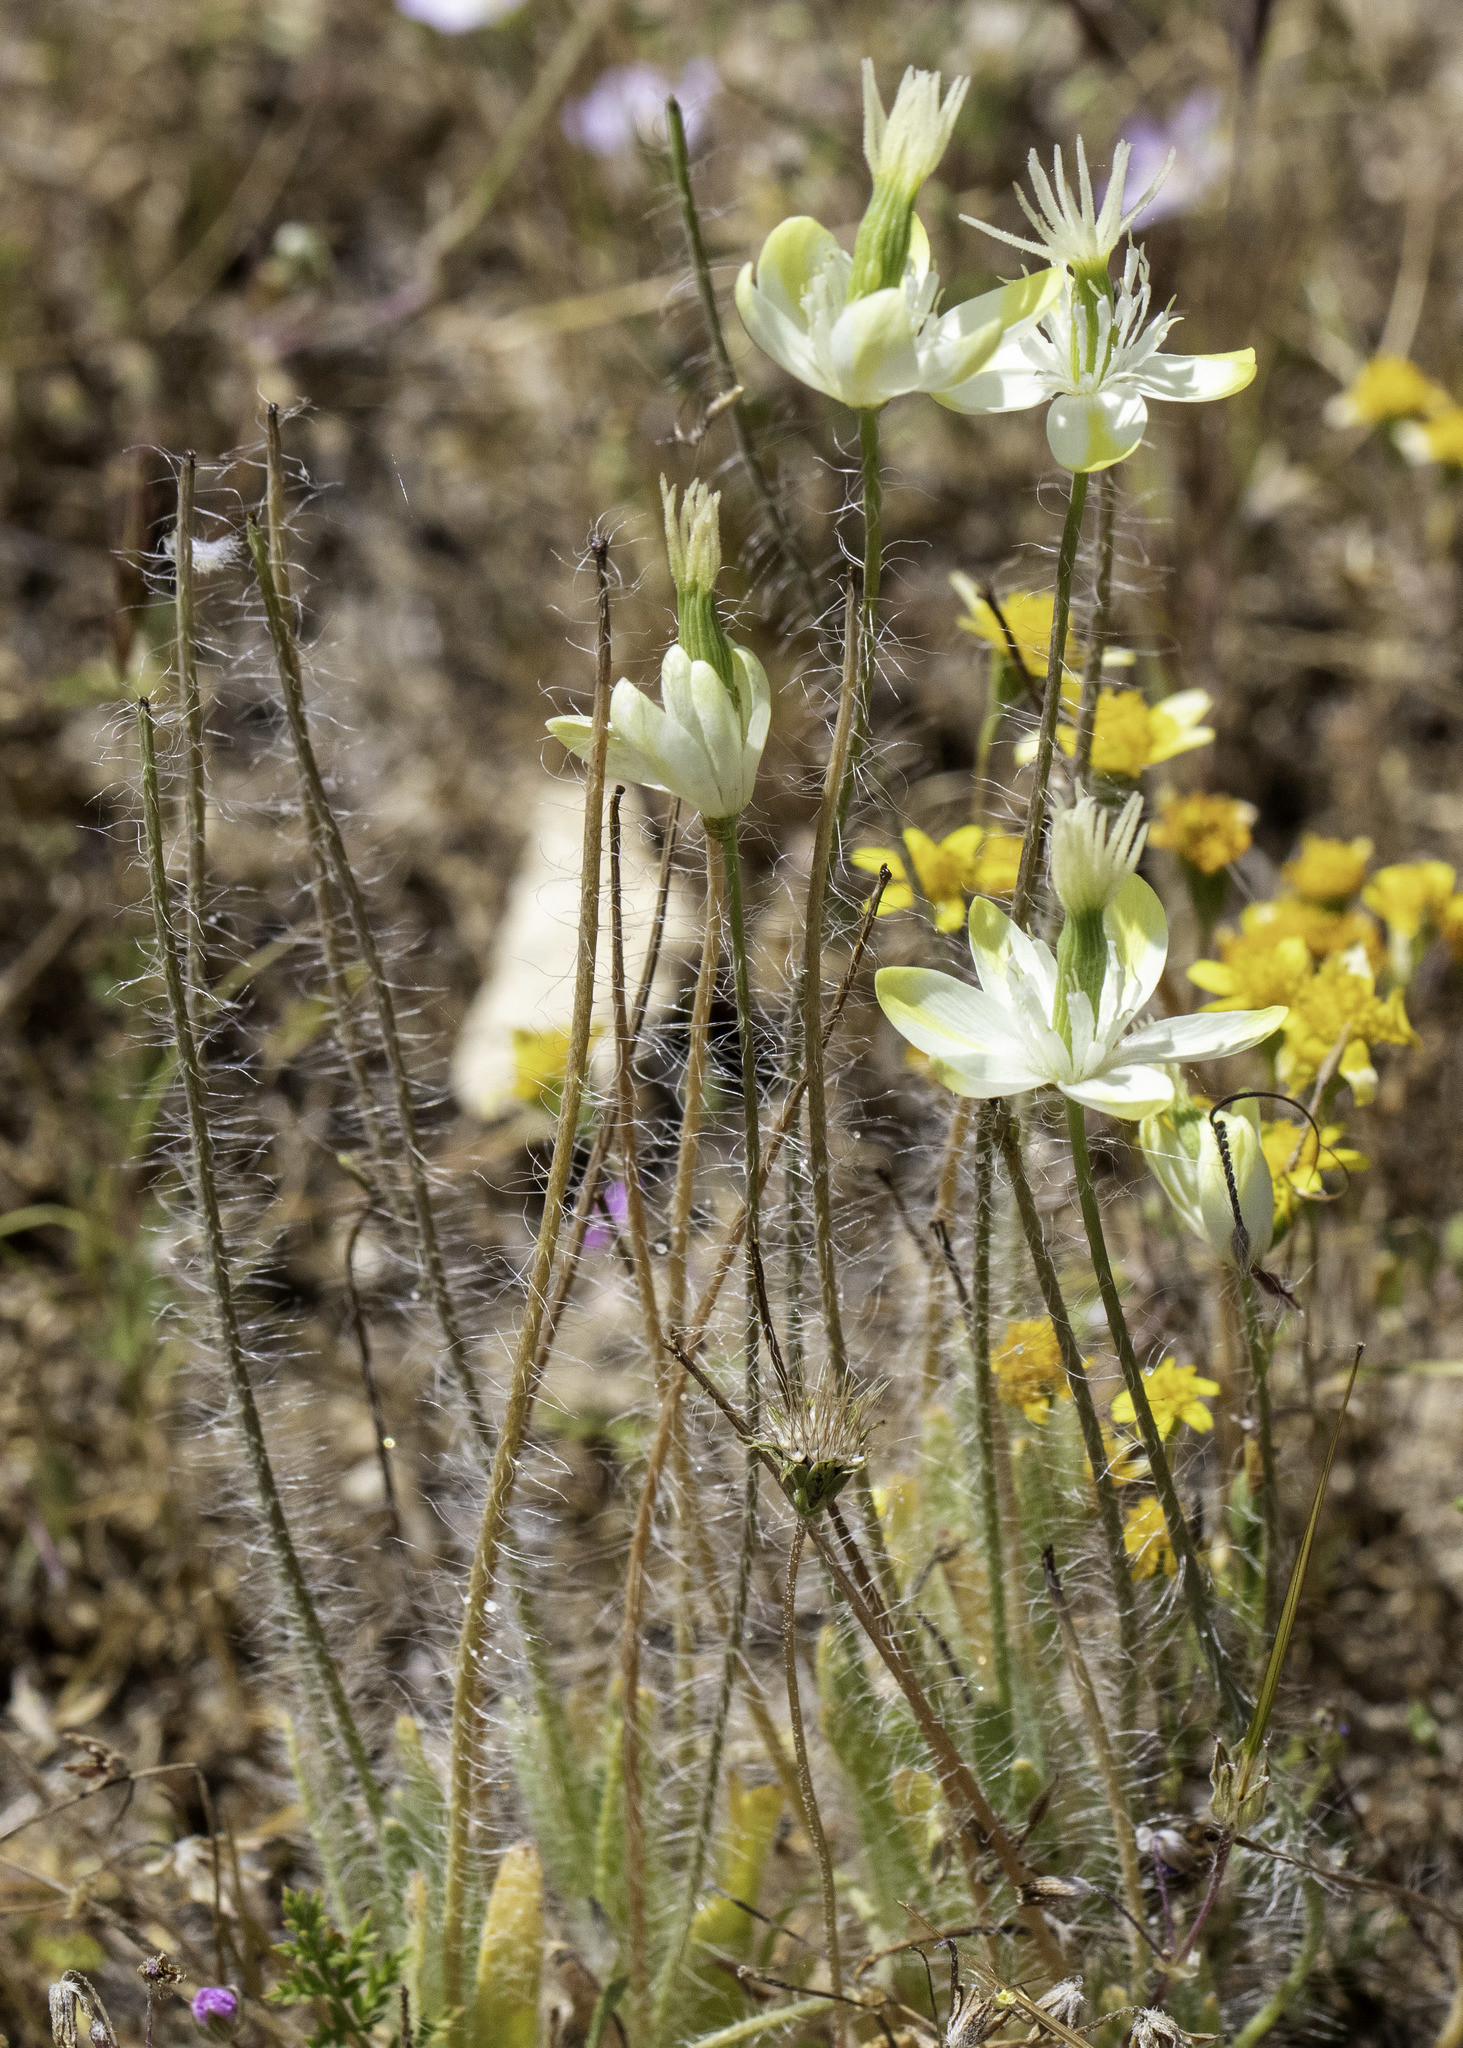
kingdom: Plantae
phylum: Tracheophyta
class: Magnoliopsida
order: Ranunculales
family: Papaveraceae
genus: Platystemon
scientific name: Platystemon californicus
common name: Cream-cups
